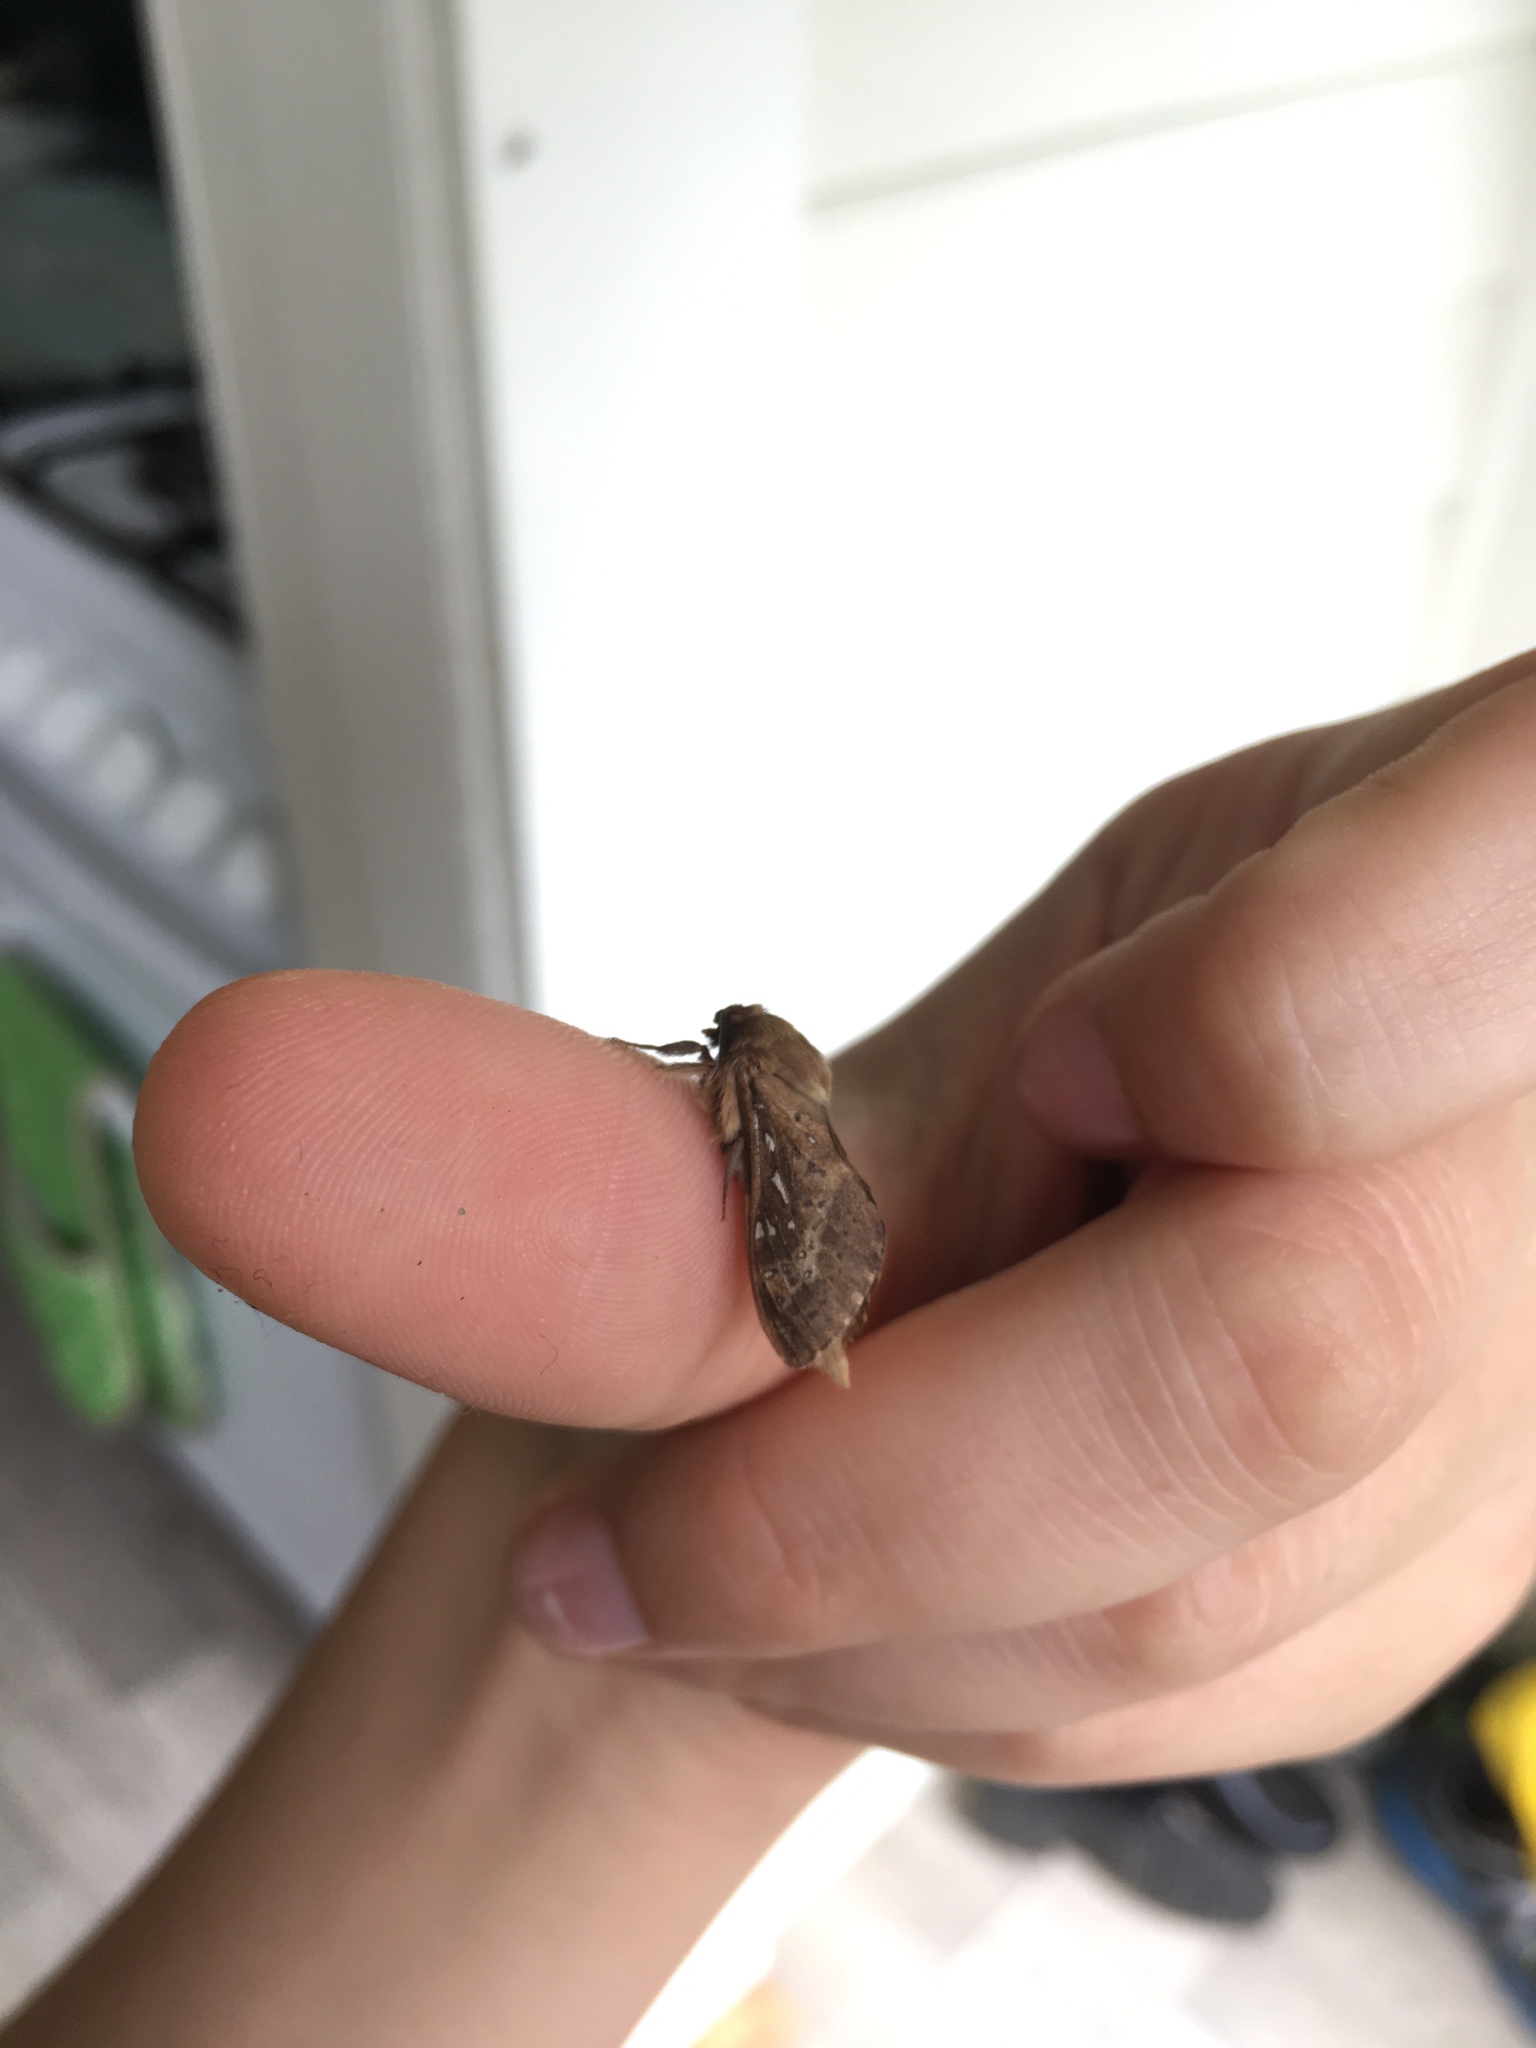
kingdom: Animalia
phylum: Arthropoda
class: Insecta
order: Lepidoptera
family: Hepialidae
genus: Wiseana
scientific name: Wiseana cervinata
